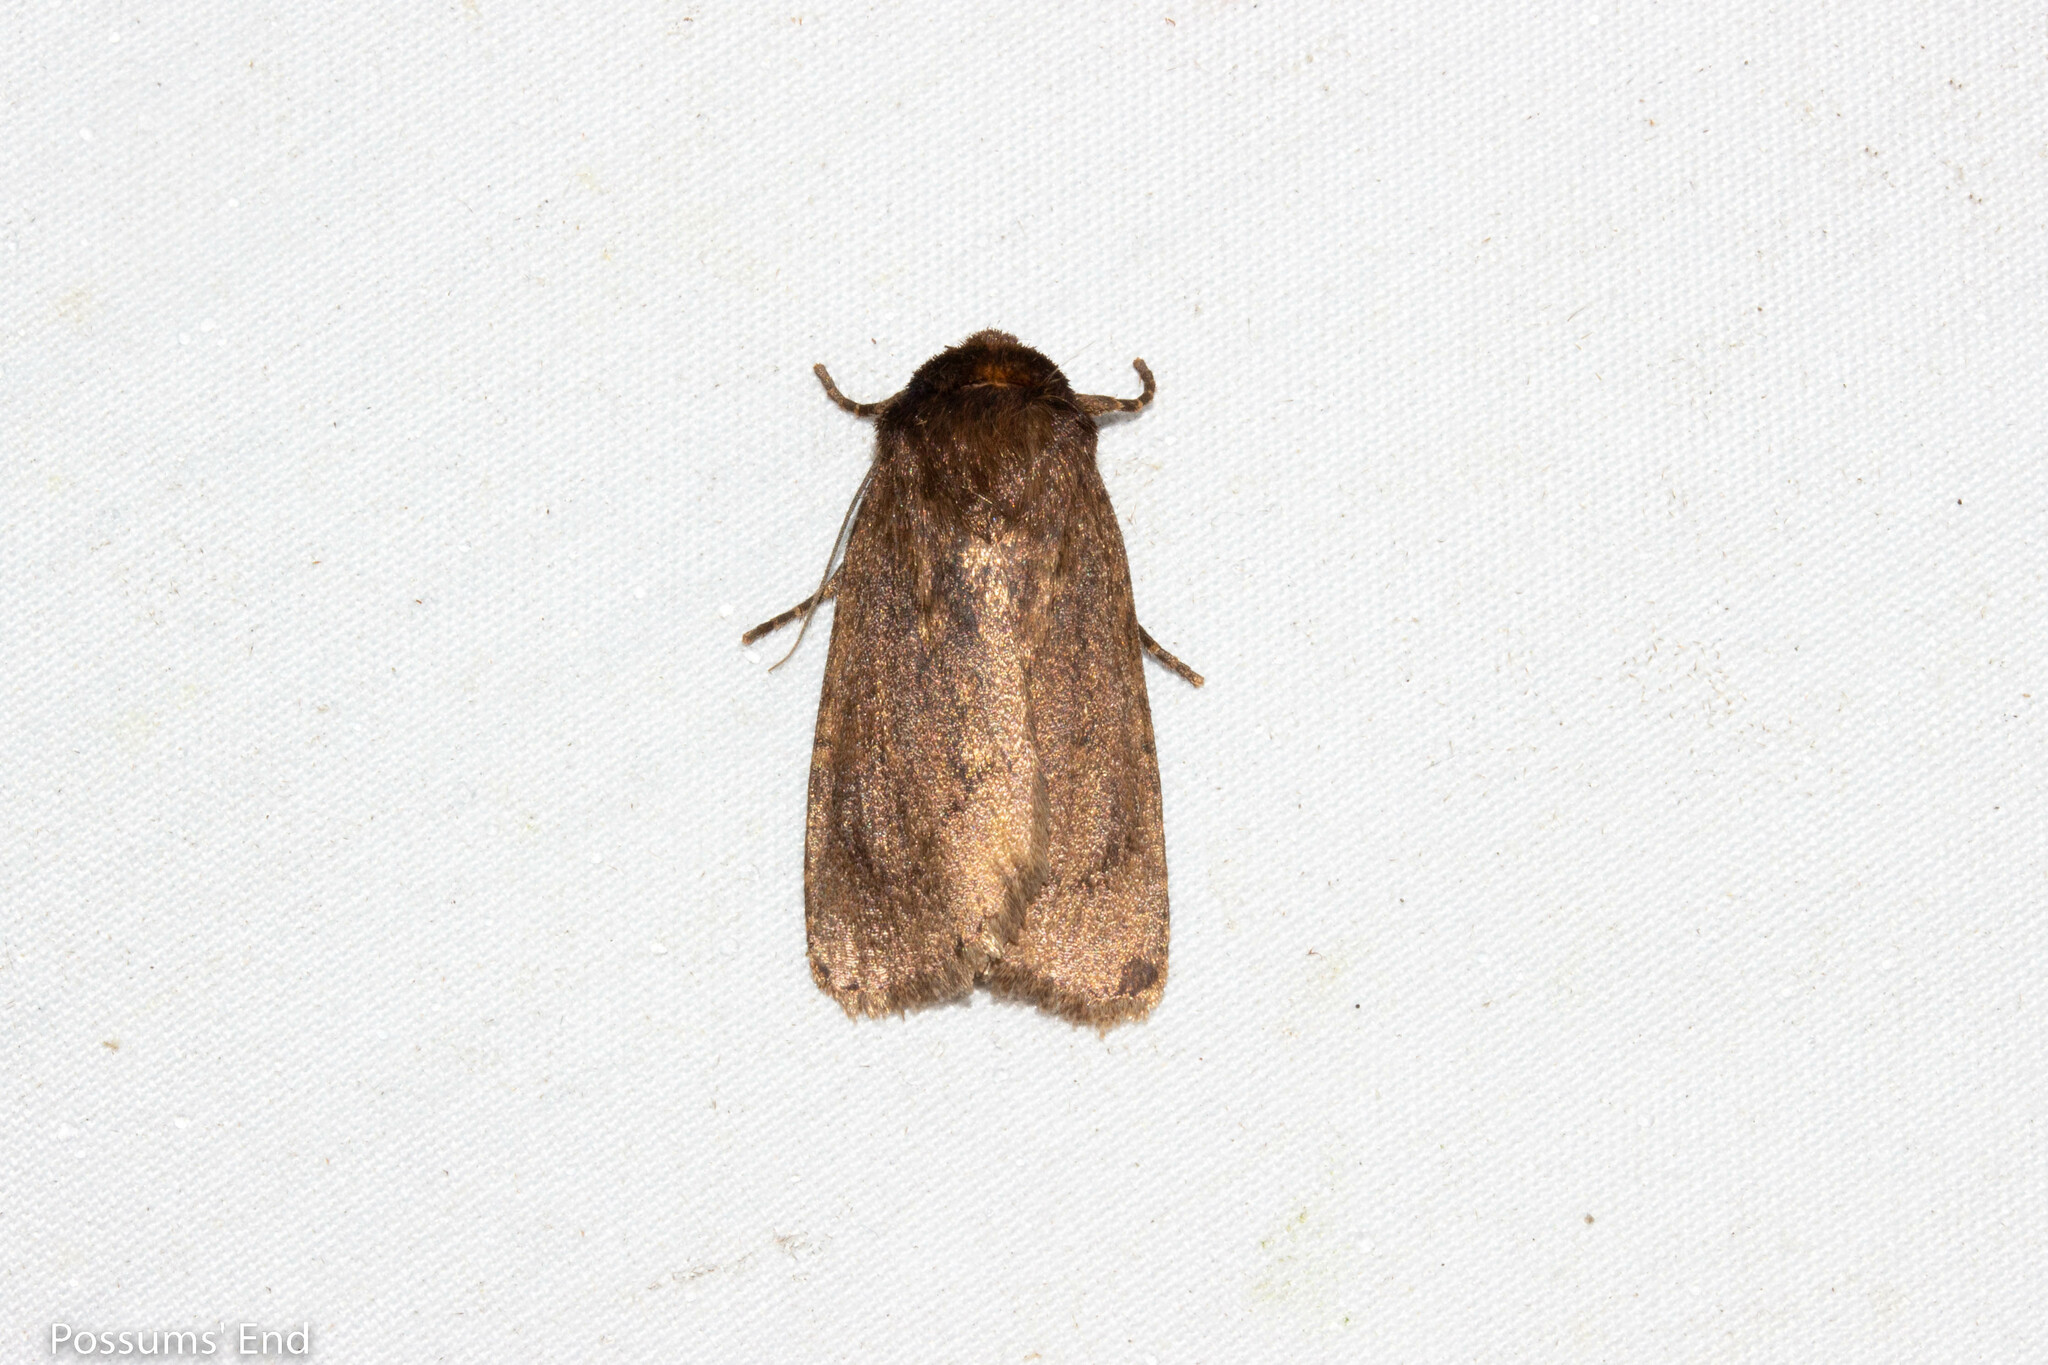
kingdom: Animalia
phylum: Arthropoda
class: Insecta
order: Lepidoptera
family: Noctuidae
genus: Bityla
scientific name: Bityla defigurata
